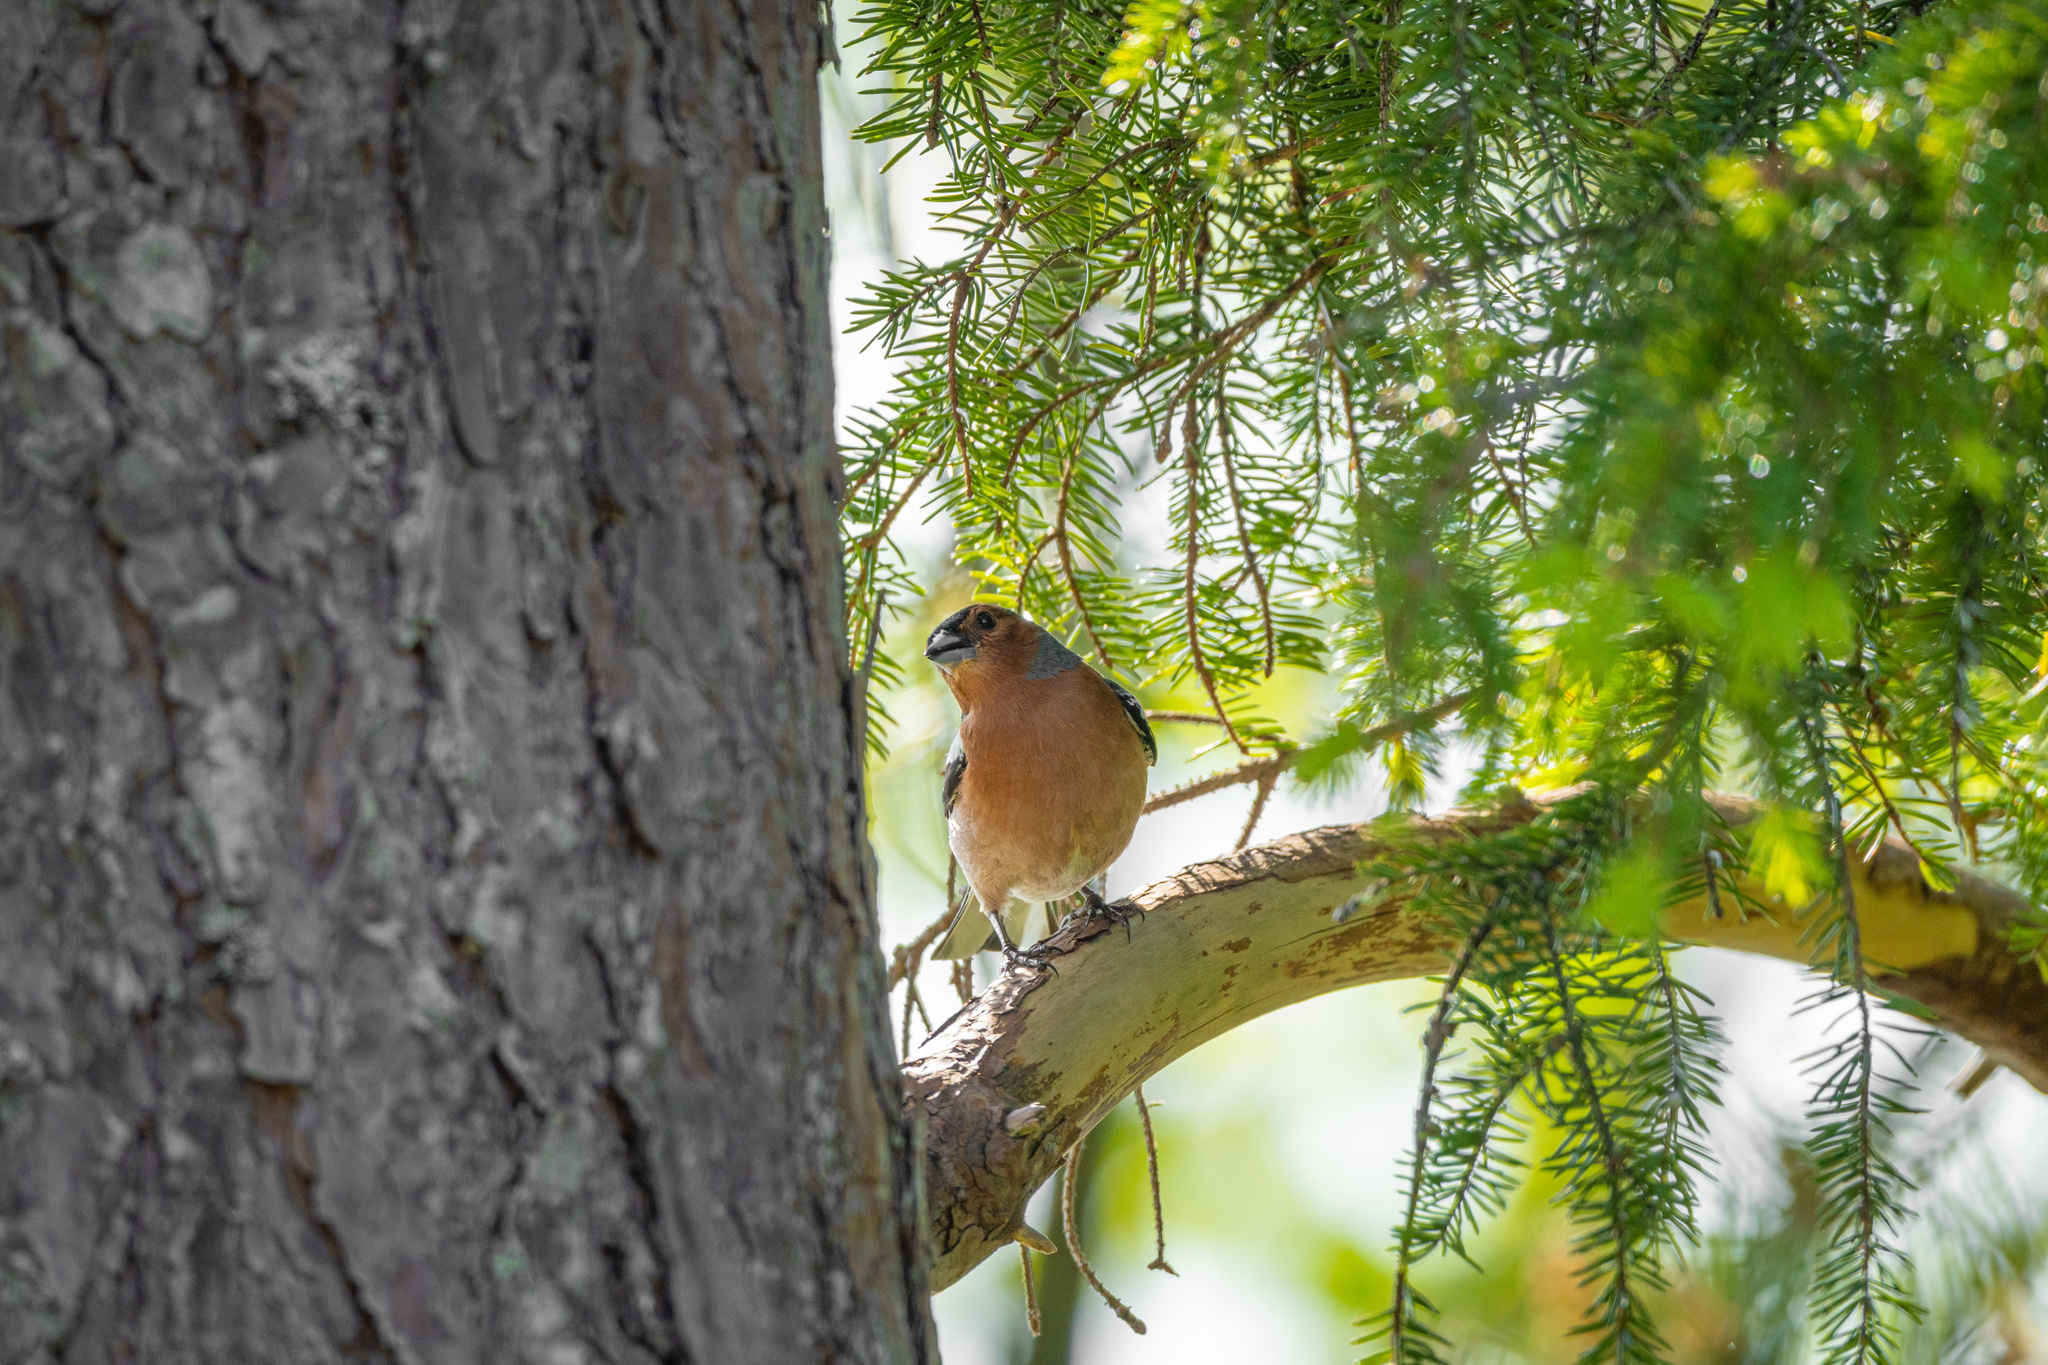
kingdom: Animalia
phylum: Chordata
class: Aves
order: Passeriformes
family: Fringillidae
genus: Fringilla
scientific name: Fringilla coelebs
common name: Common chaffinch
